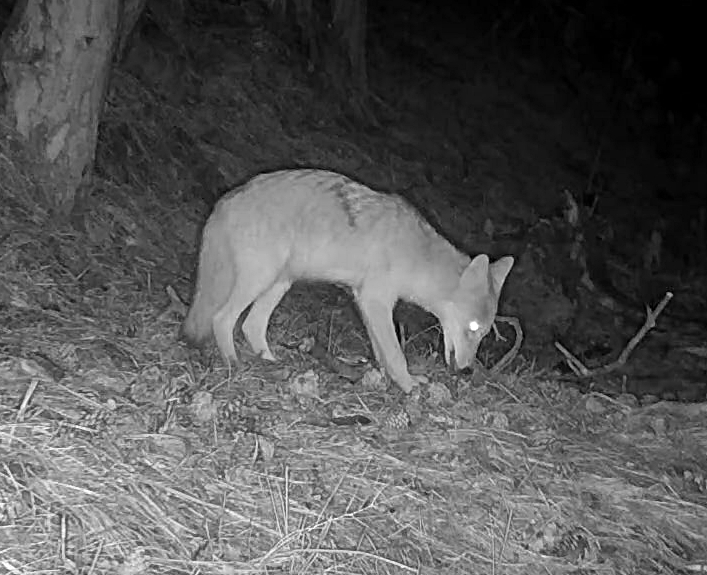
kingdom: Animalia
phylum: Chordata
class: Mammalia
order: Carnivora
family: Canidae
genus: Canis
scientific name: Canis latrans
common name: Coyote
